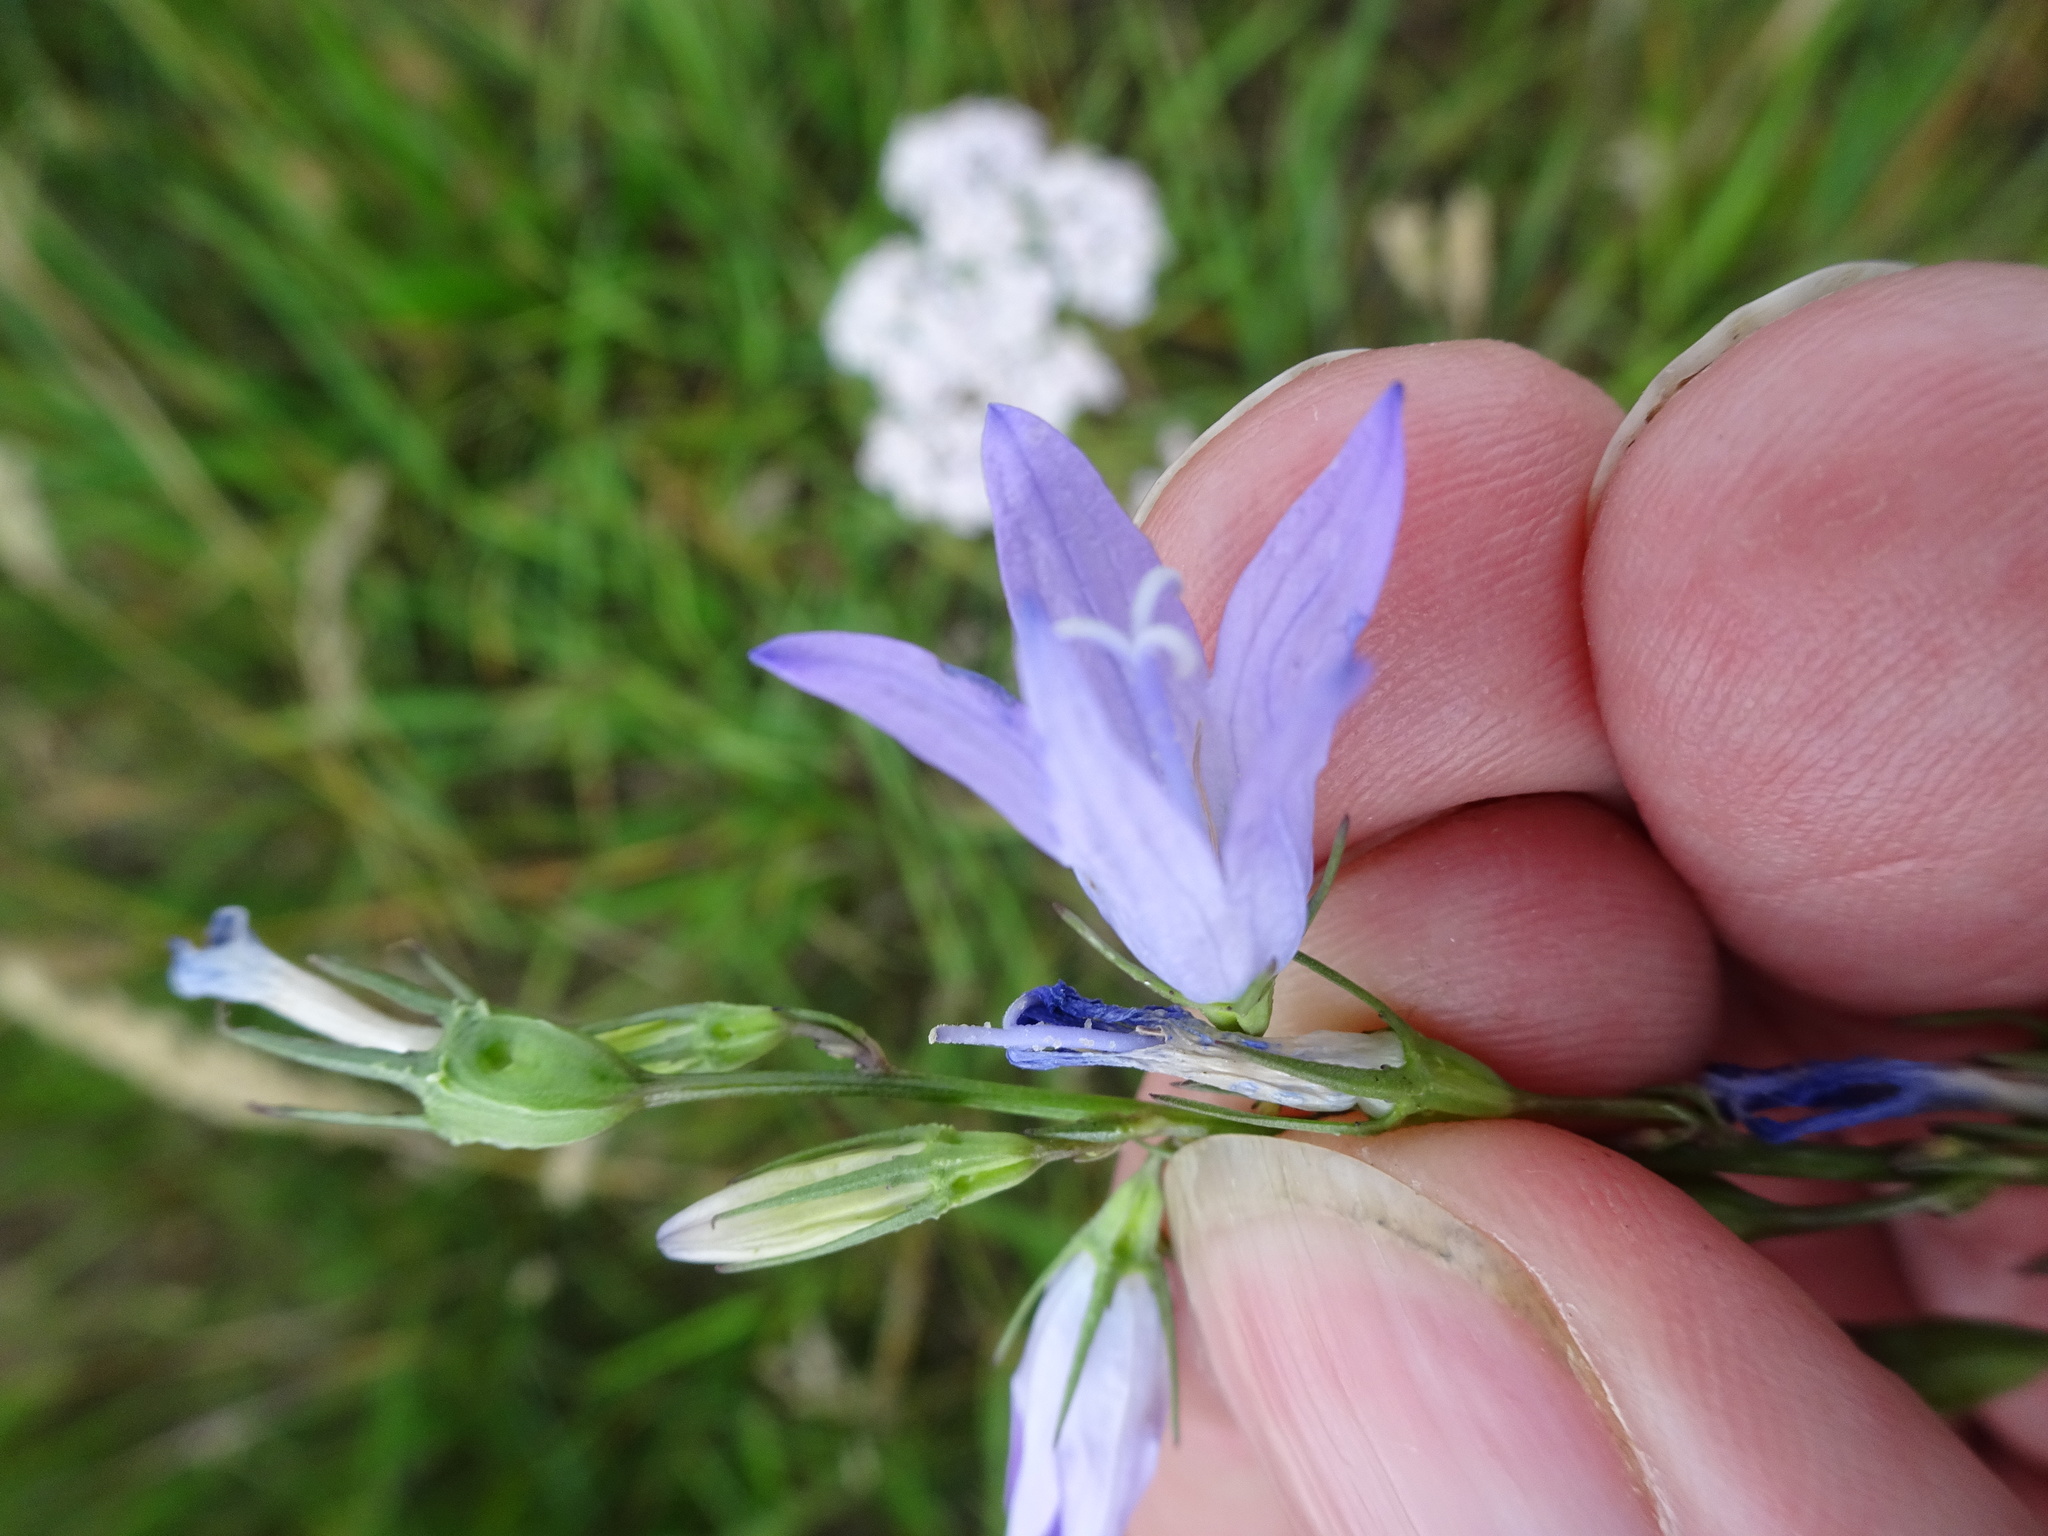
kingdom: Plantae
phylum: Tracheophyta
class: Magnoliopsida
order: Asterales
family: Campanulaceae
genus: Campanula
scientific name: Campanula rapunculus
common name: Rampion bellflower
